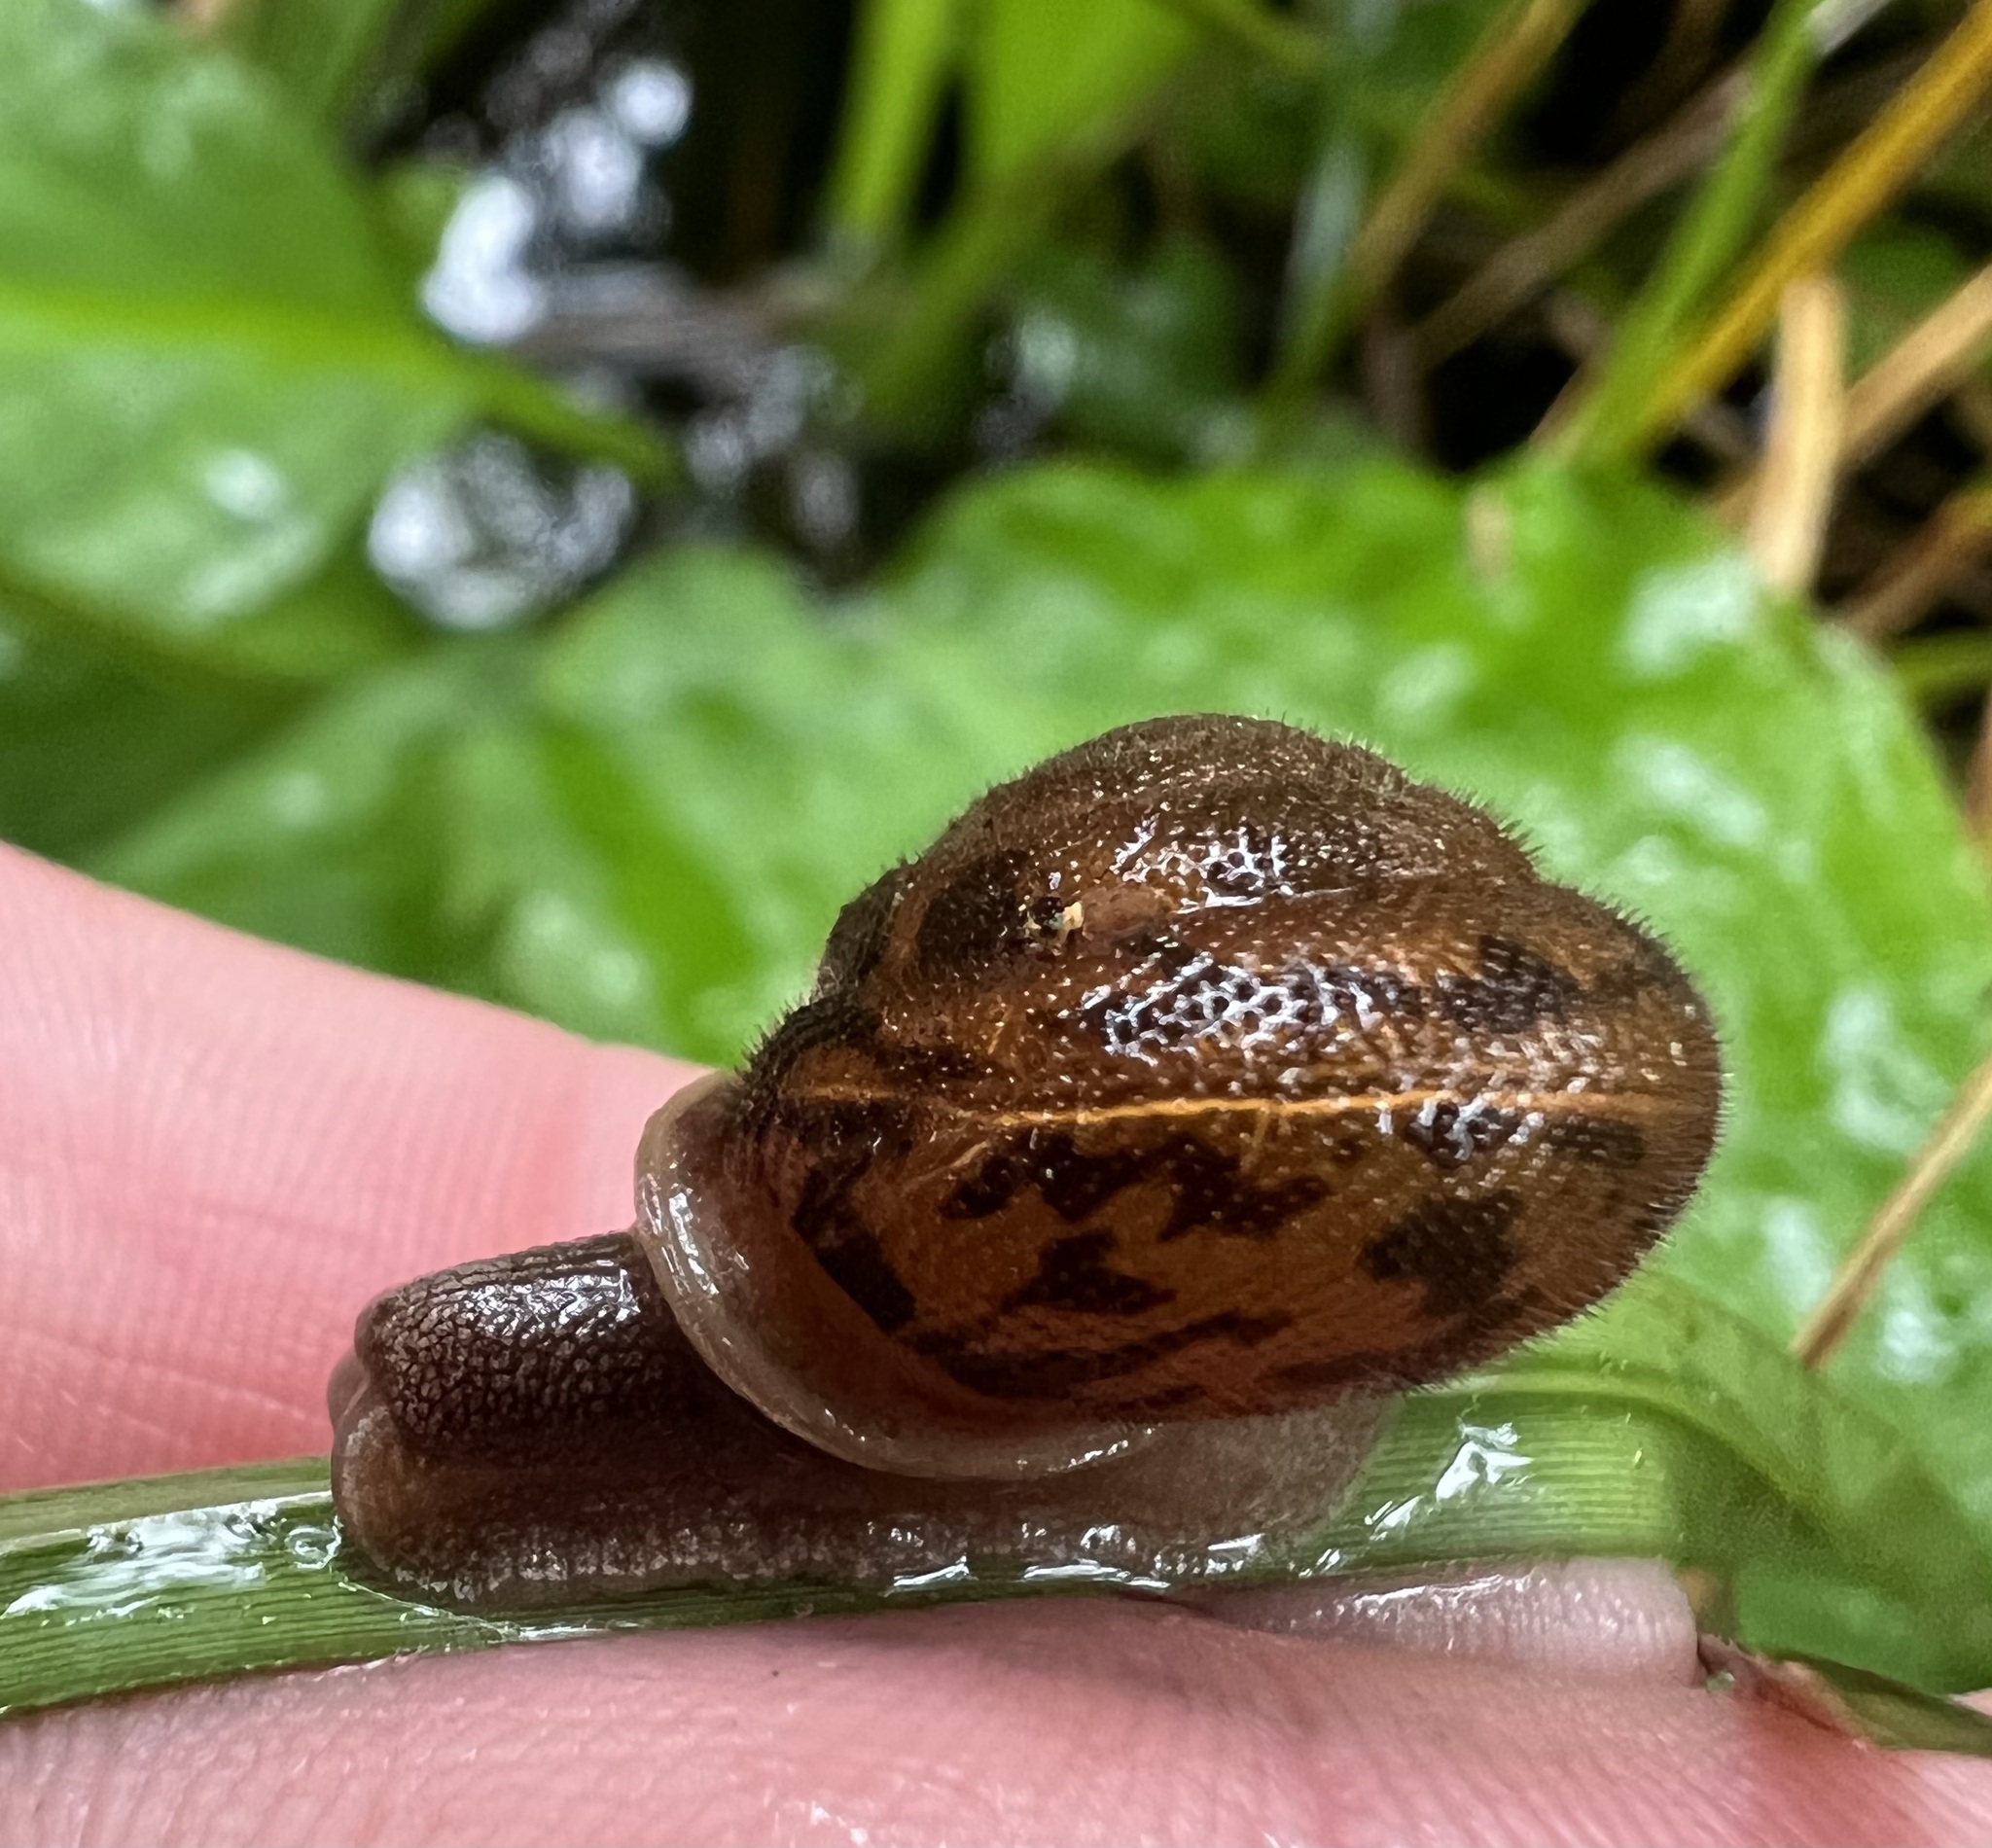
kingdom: Animalia
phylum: Mollusca
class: Gastropoda
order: Stylommatophora
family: Polygyridae
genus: Vespericola
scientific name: Vespericola columbianus
